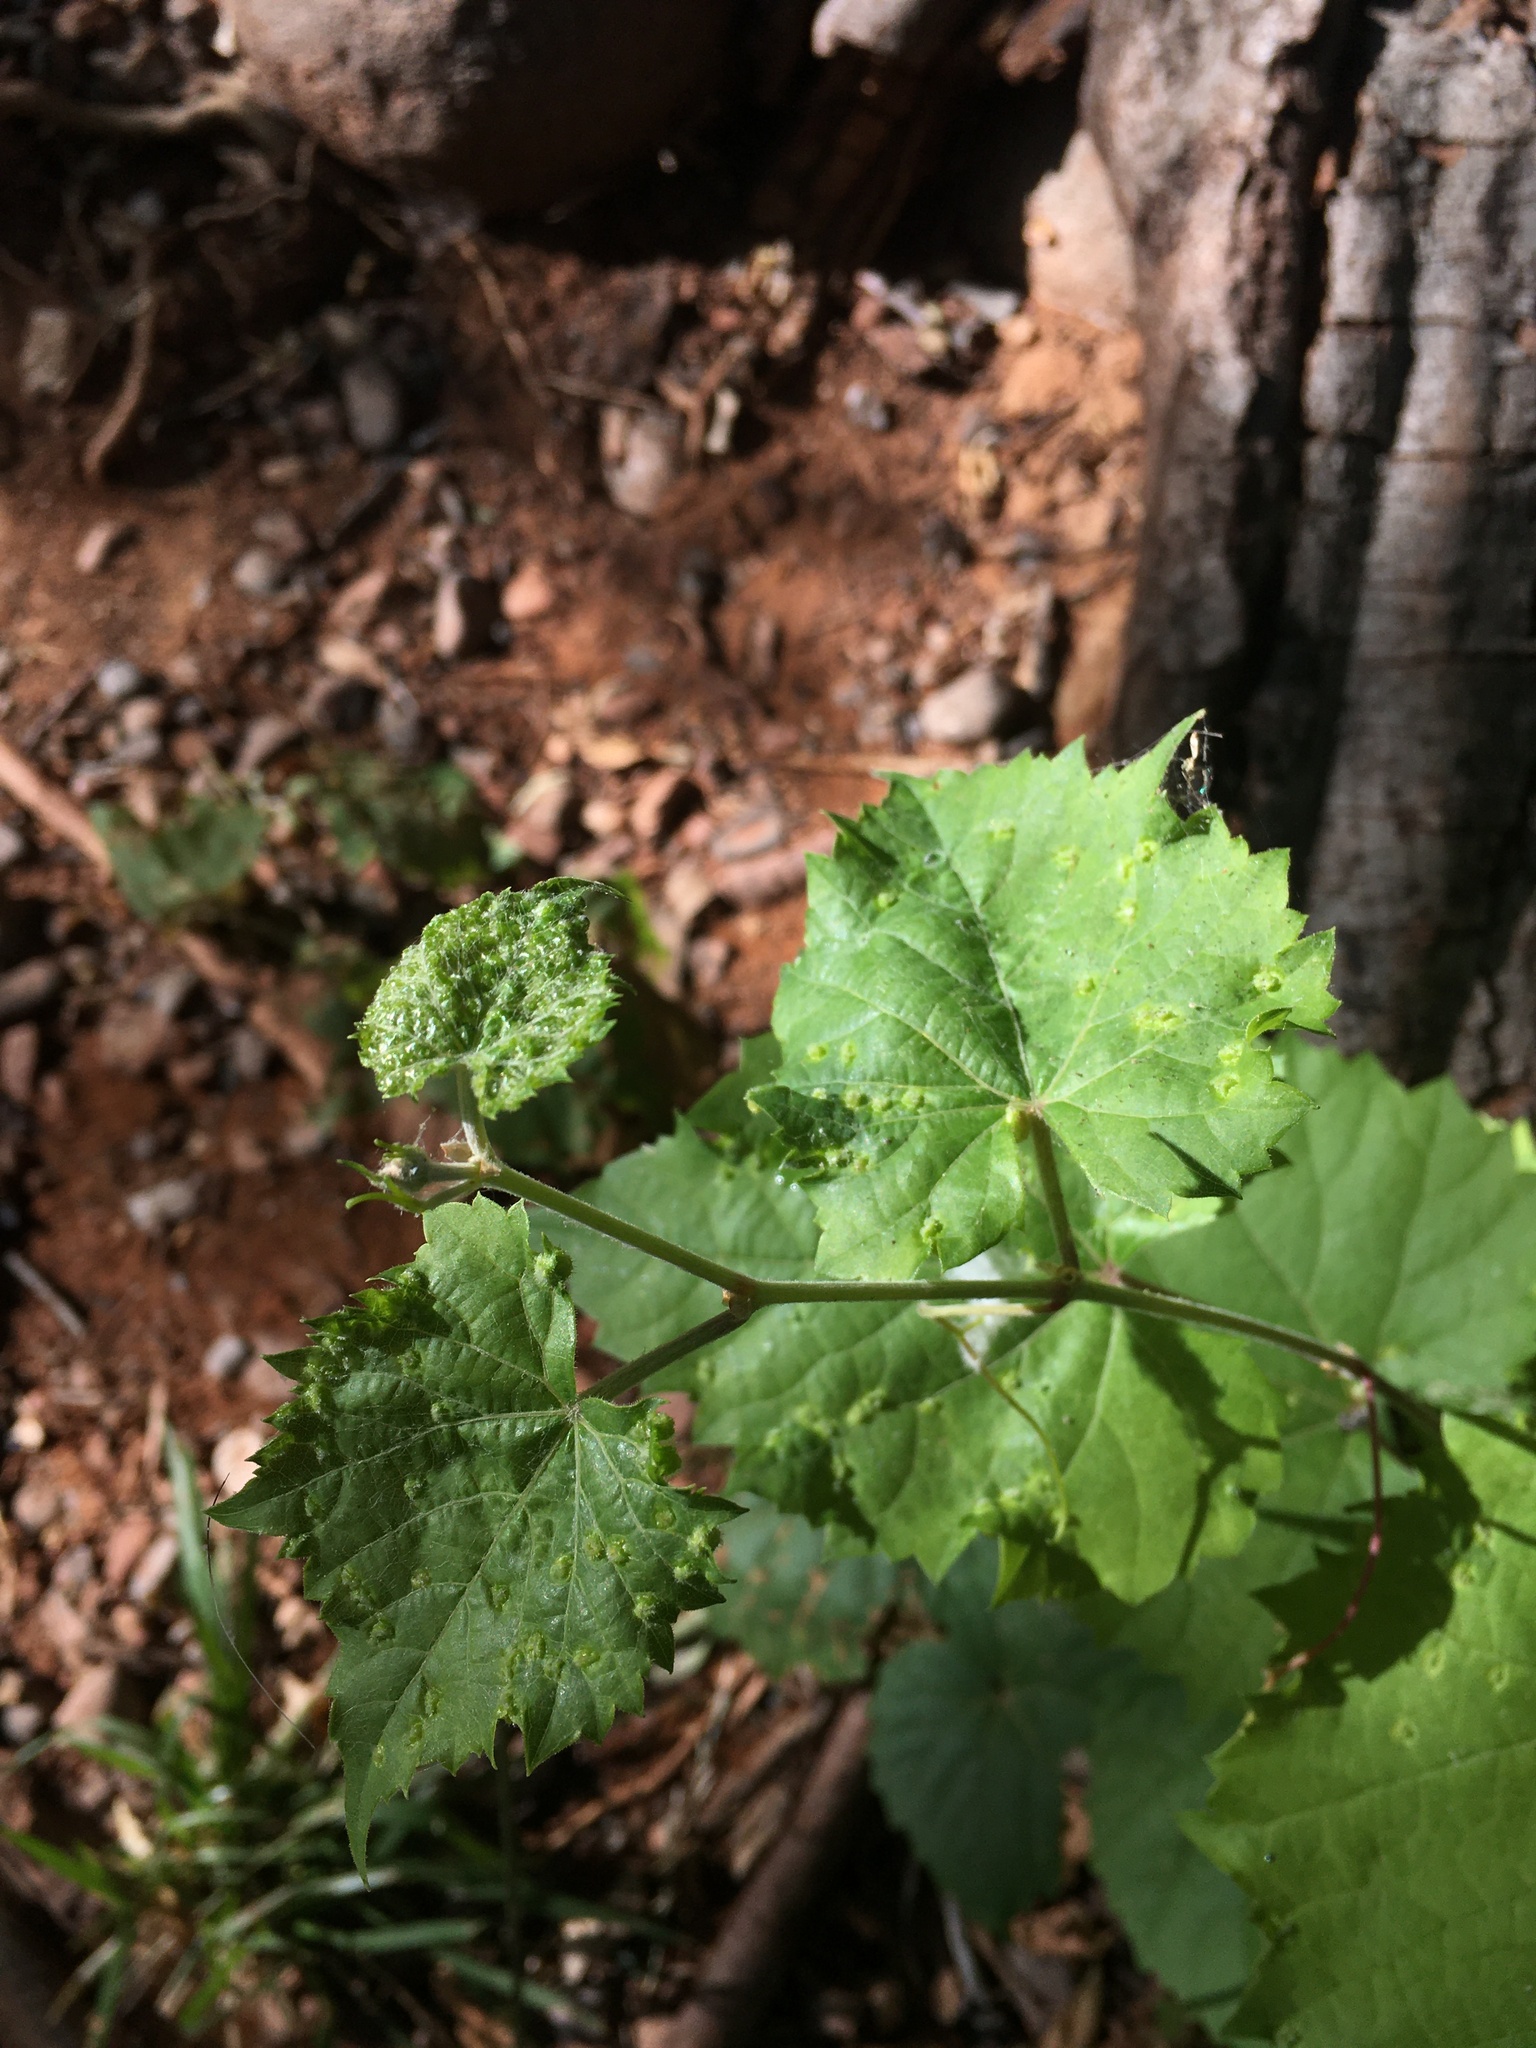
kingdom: Animalia
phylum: Arthropoda
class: Insecta
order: Hemiptera
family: Phylloxeridae
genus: Daktulosphaira
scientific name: Daktulosphaira vitifoliae
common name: Grape phylloxera
